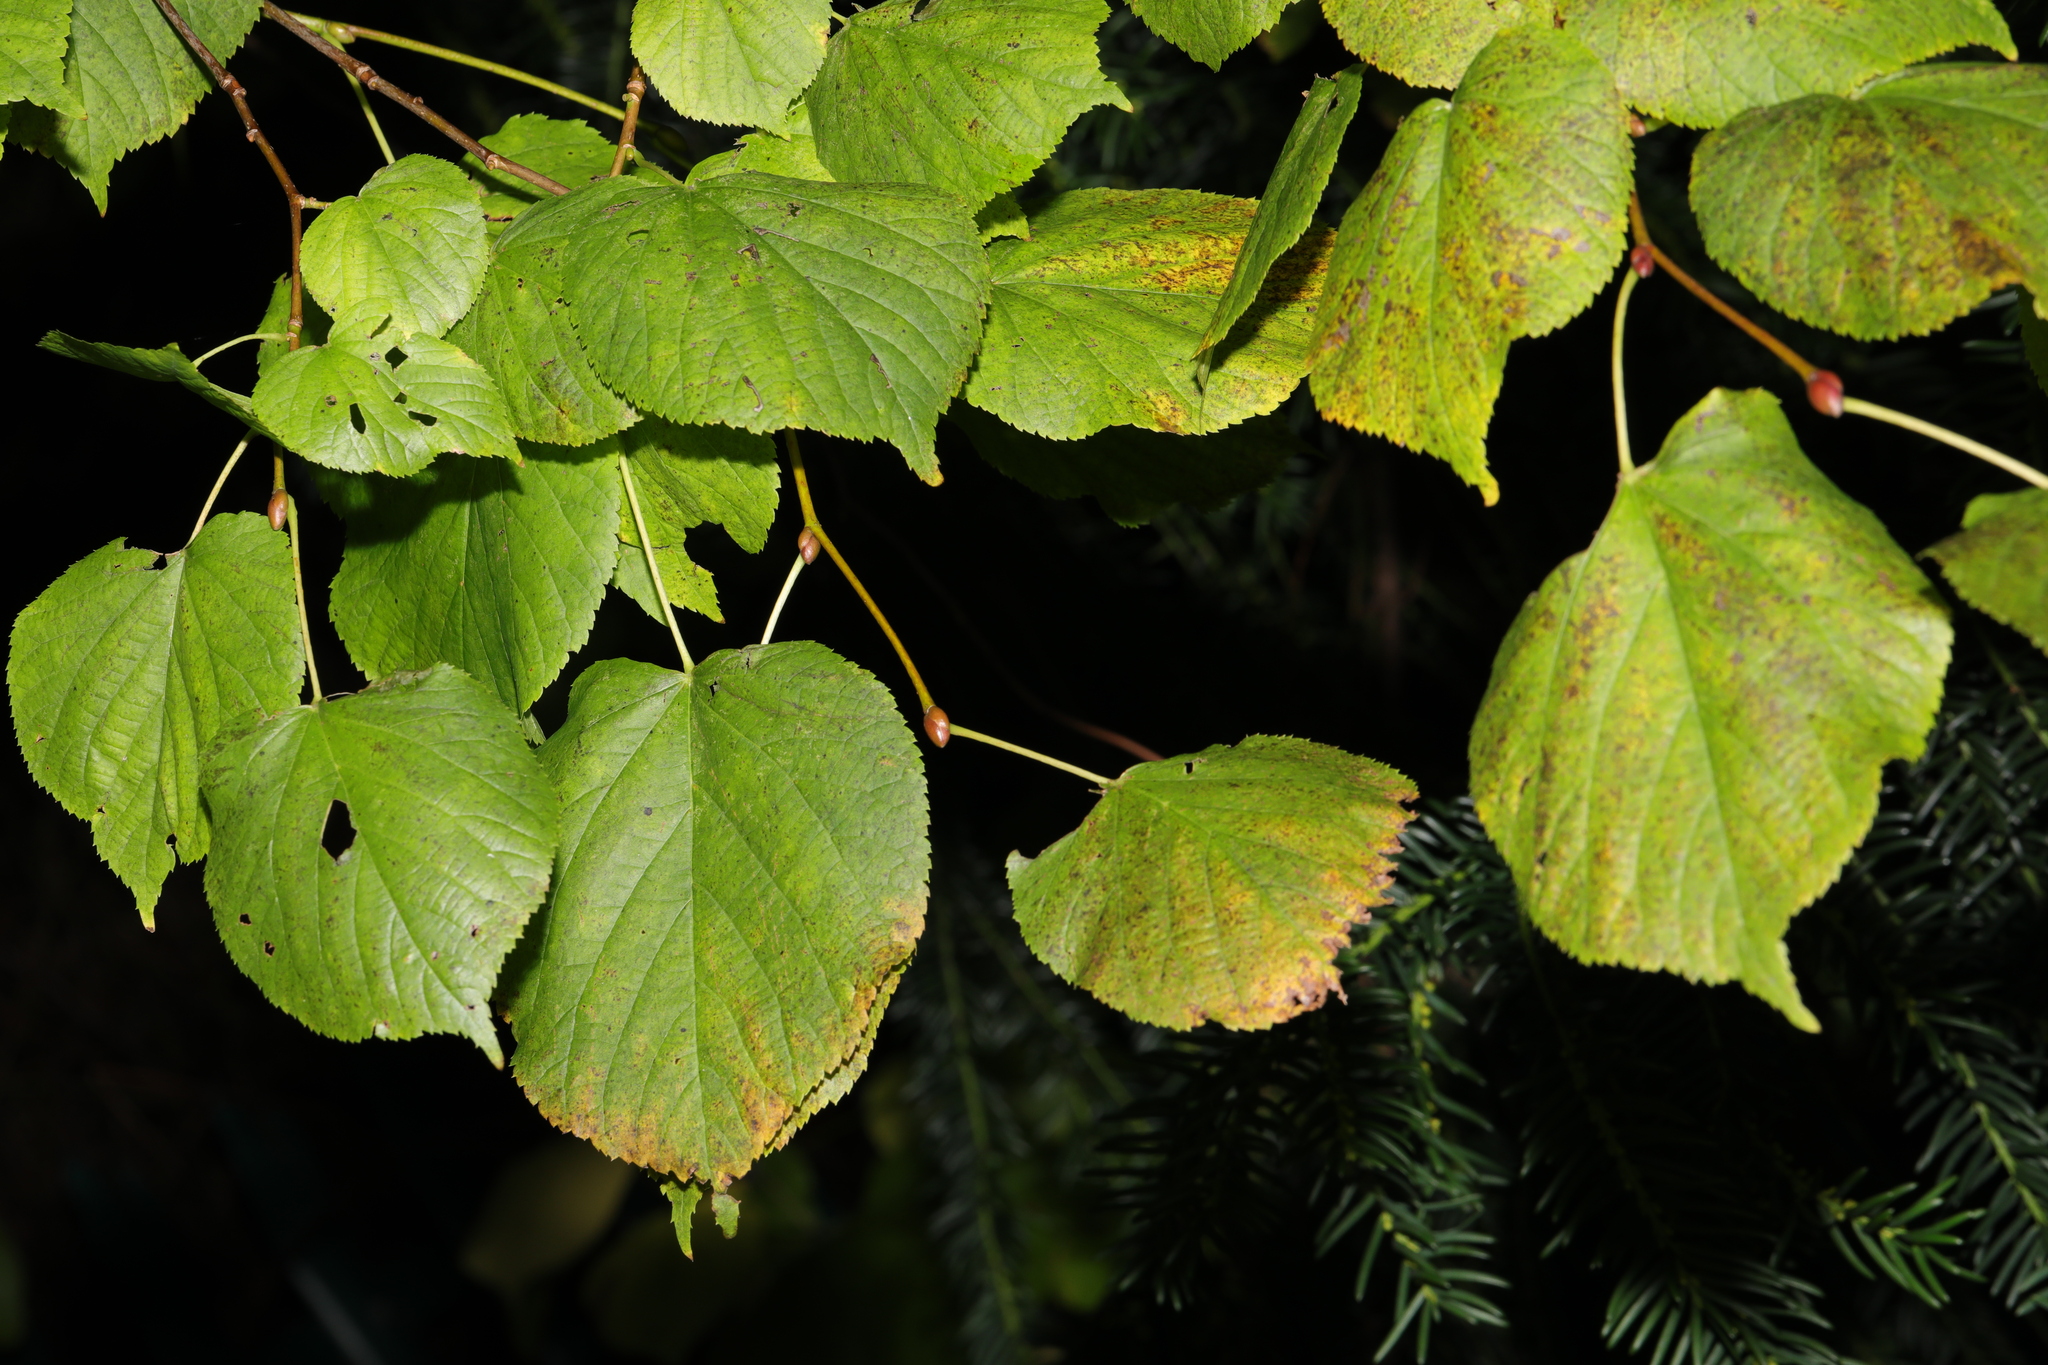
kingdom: Plantae
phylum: Tracheophyta
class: Magnoliopsida
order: Malvales
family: Malvaceae
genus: Tilia
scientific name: Tilia europaea
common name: European linden
